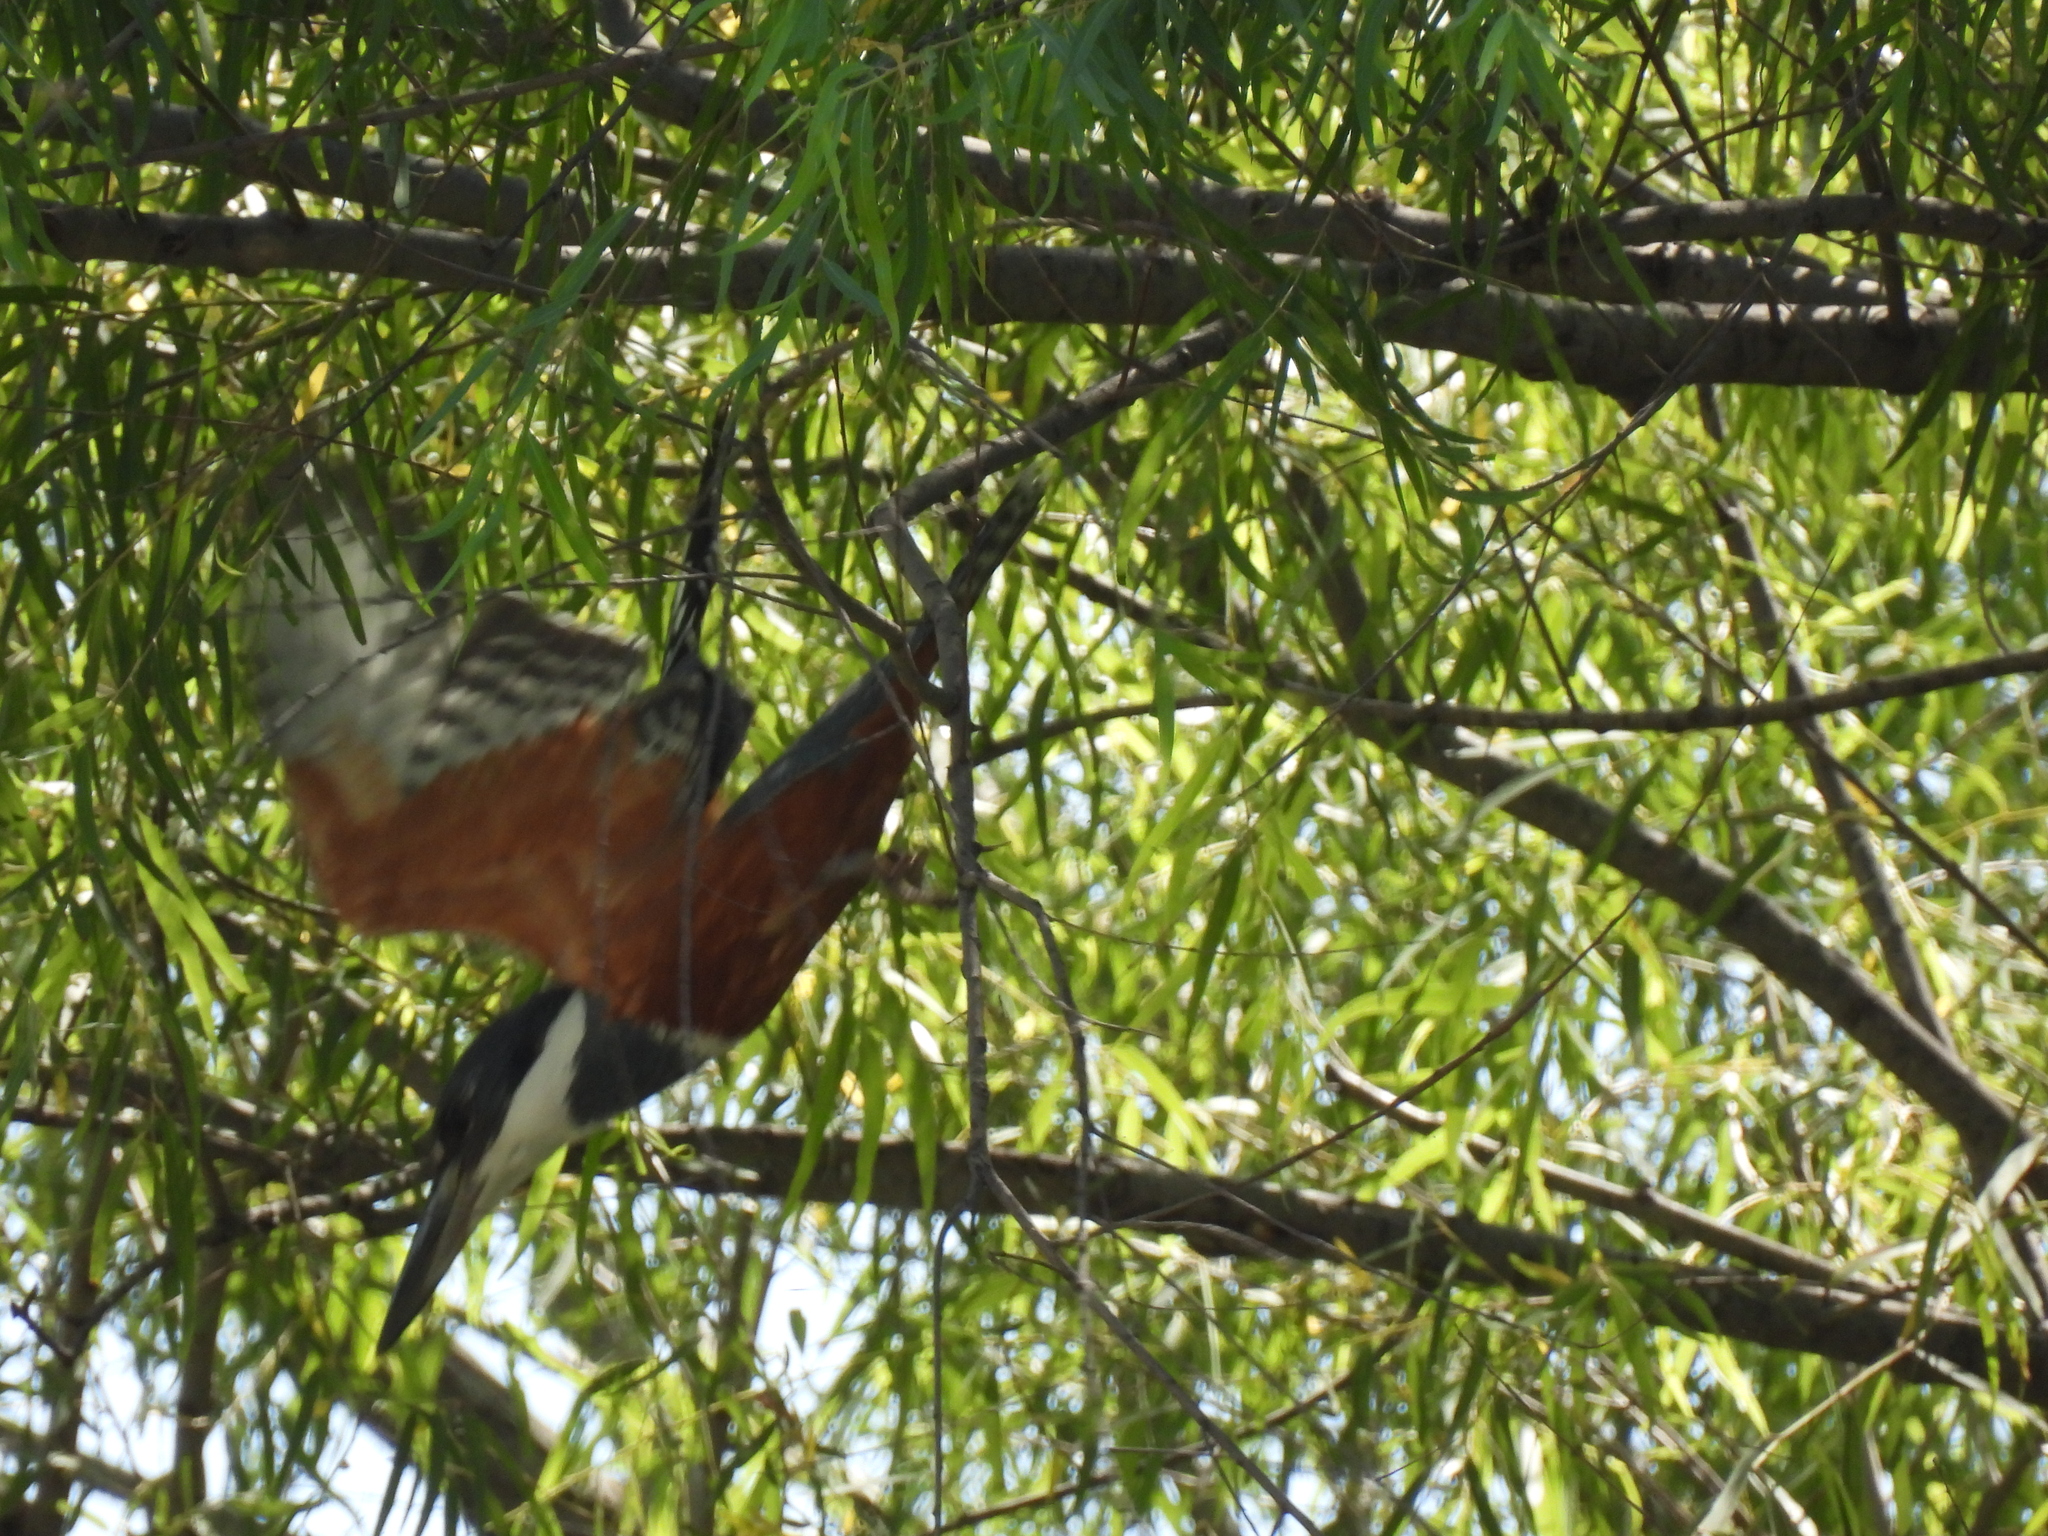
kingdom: Animalia
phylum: Chordata
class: Aves
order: Coraciiformes
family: Alcedinidae
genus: Megaceryle
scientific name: Megaceryle torquata
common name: Ringed kingfisher
